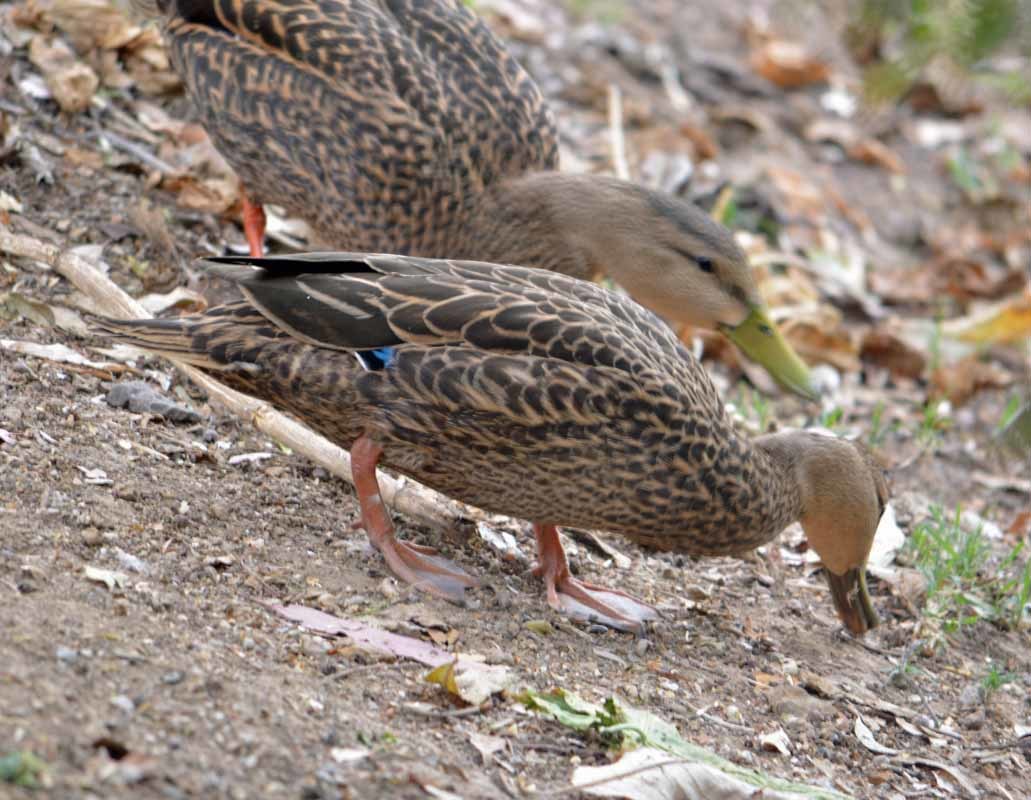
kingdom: Animalia
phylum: Chordata
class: Aves
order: Anseriformes
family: Anatidae
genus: Anas
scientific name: Anas diazi
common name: Mexican duck
